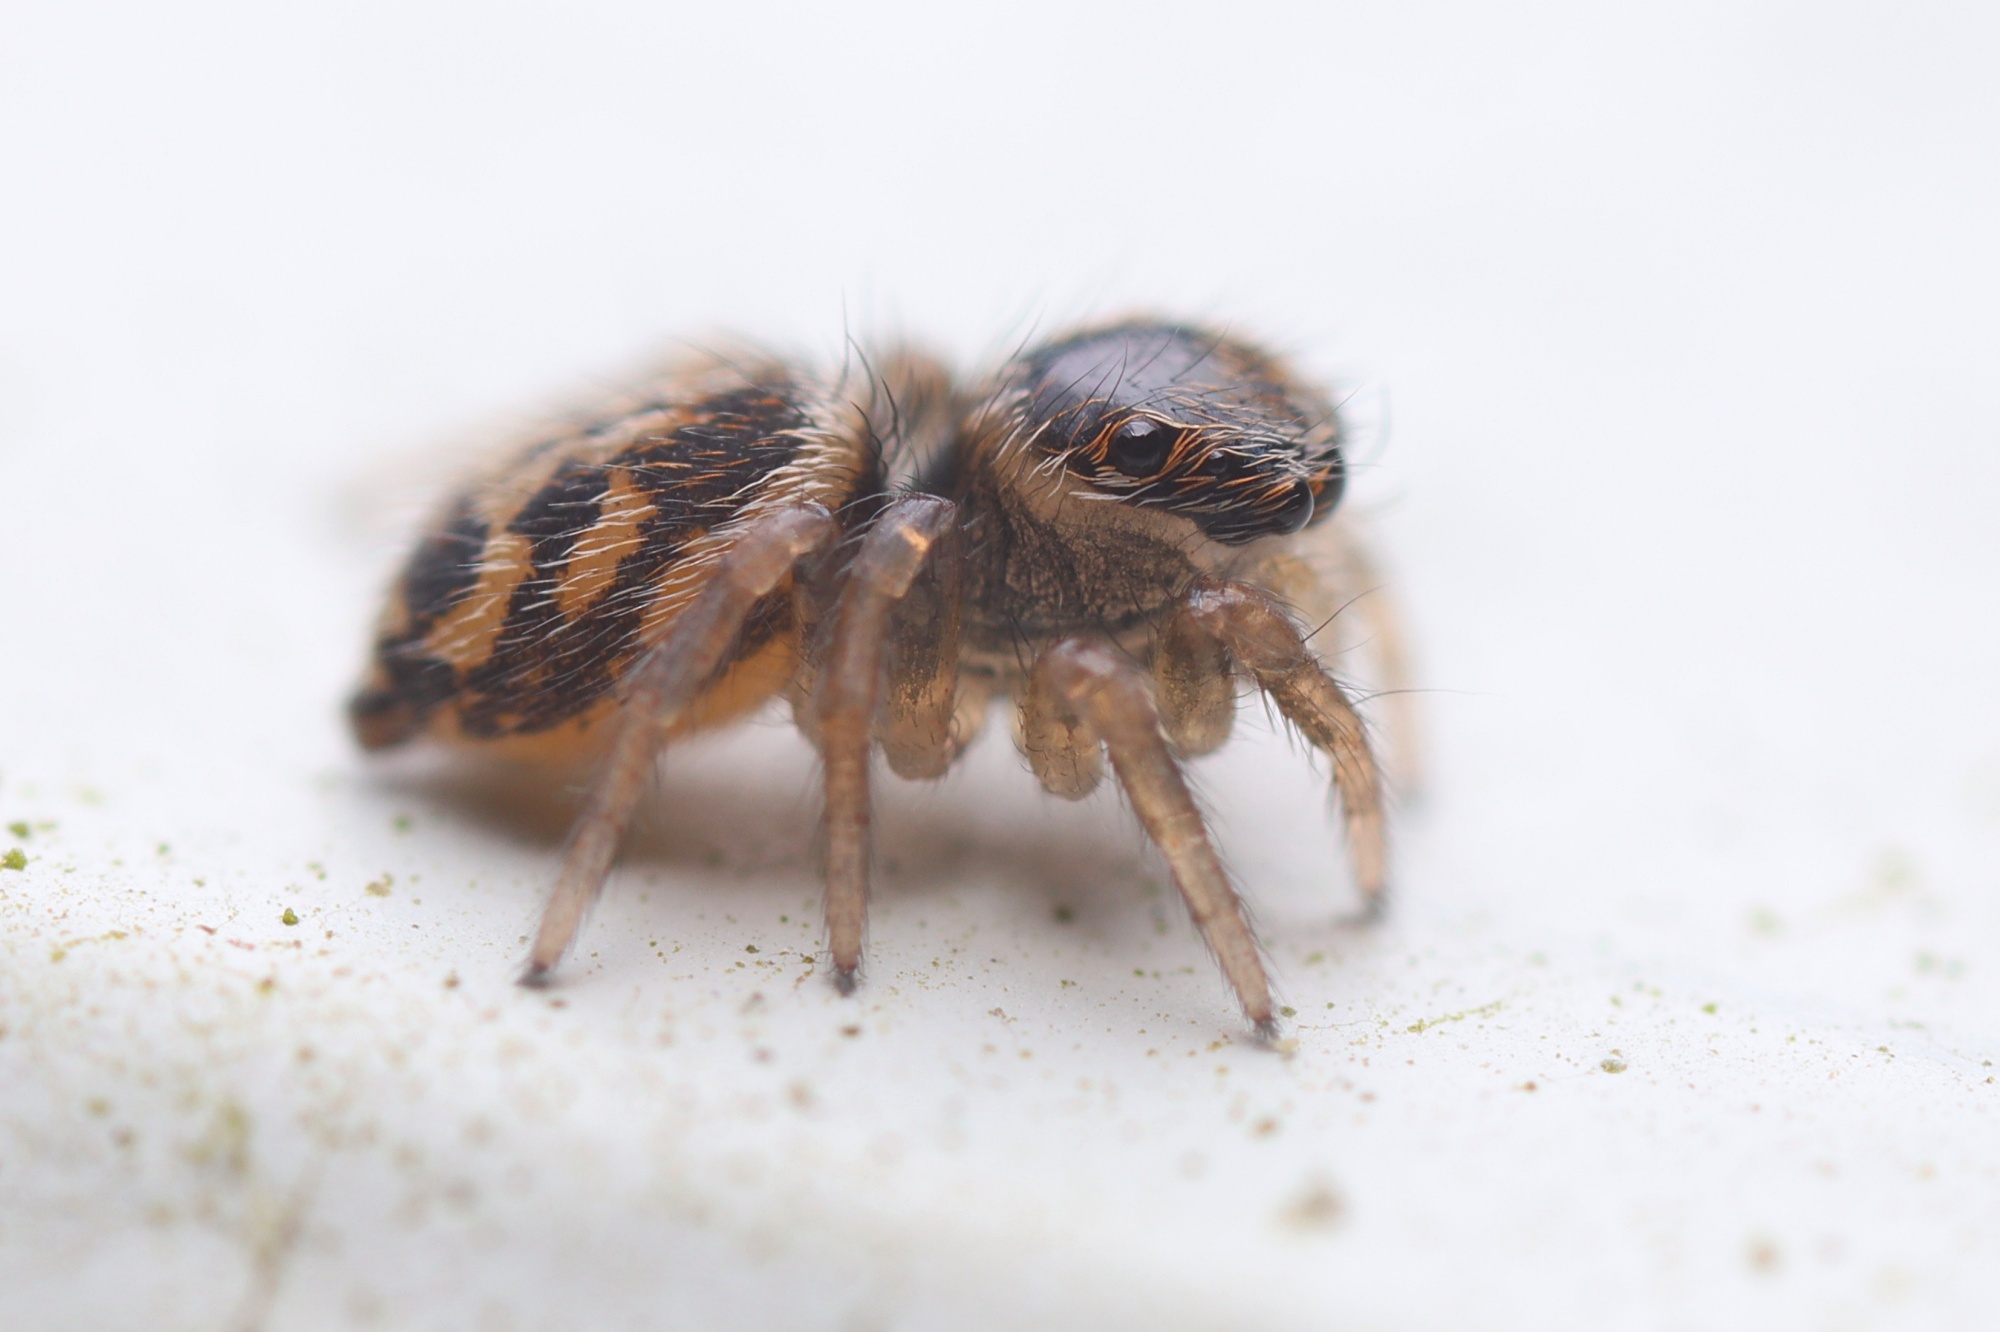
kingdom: Animalia
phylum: Arthropoda
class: Arachnida
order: Araneae
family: Salticidae
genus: Maratus
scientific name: Maratus griseus
